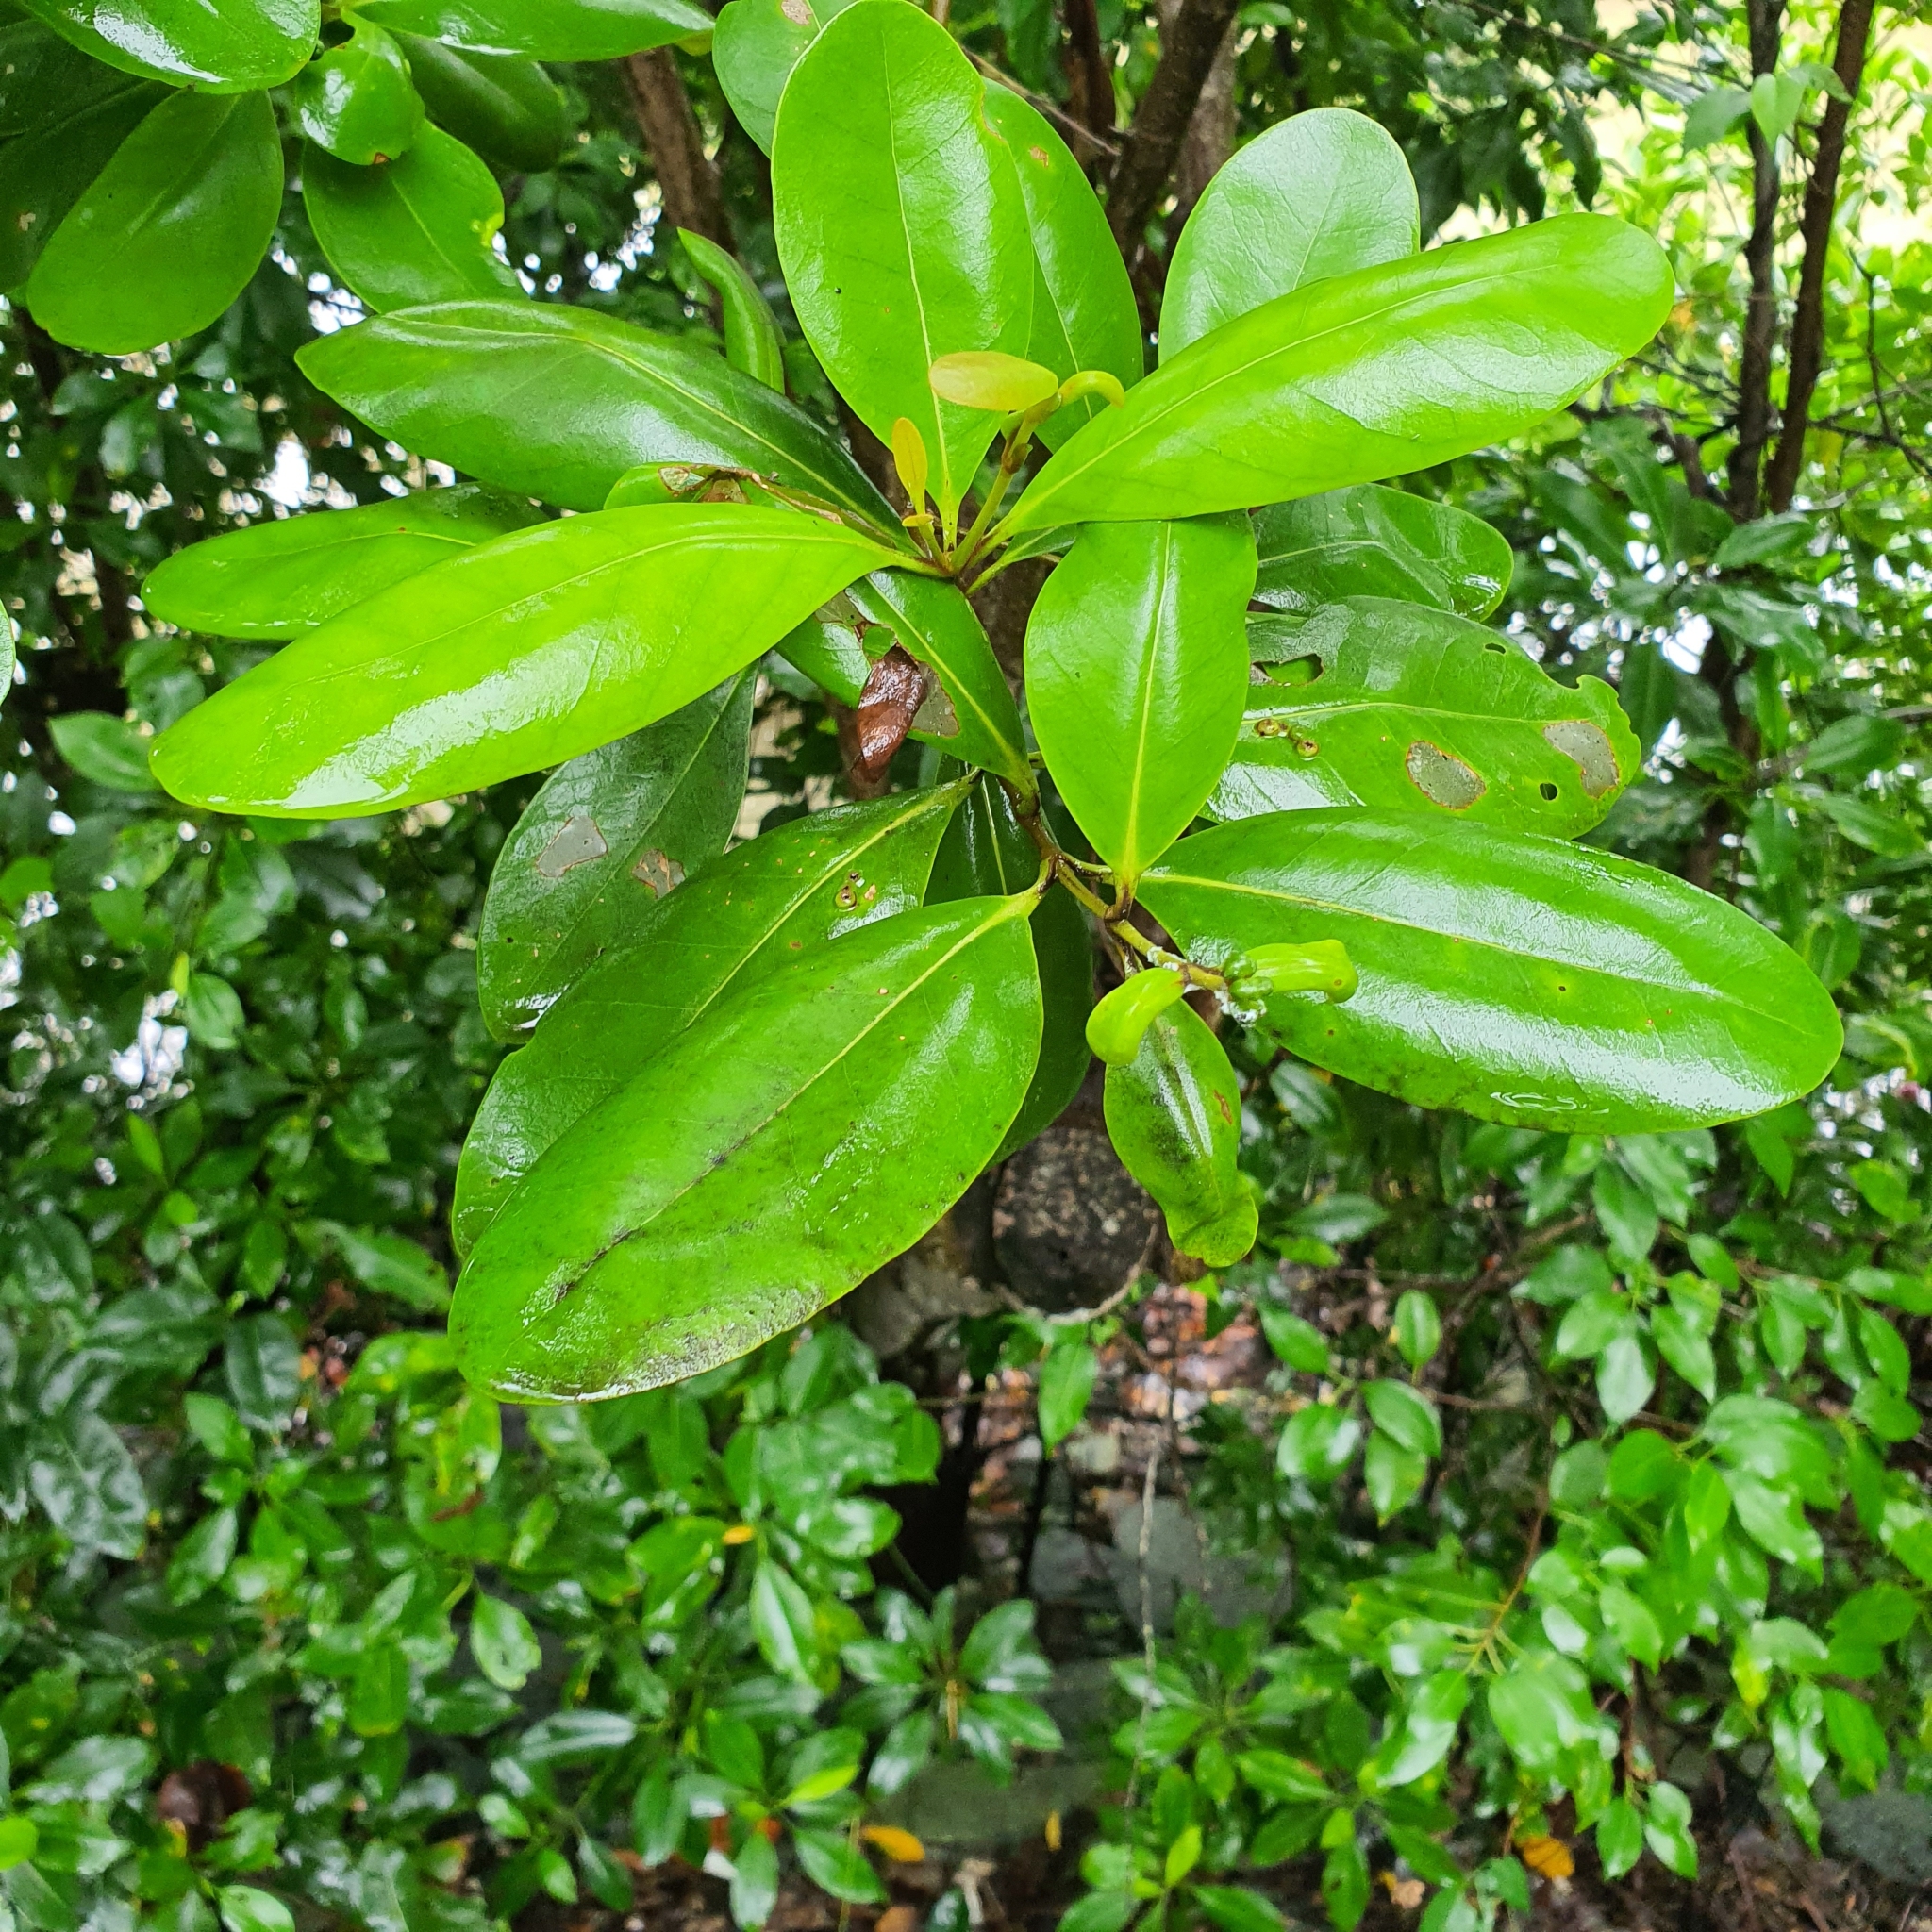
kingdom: Plantae
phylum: Tracheophyta
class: Magnoliopsida
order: Lamiales
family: Acanthaceae
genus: Avicennia
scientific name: Avicennia officinalis
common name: Baen
